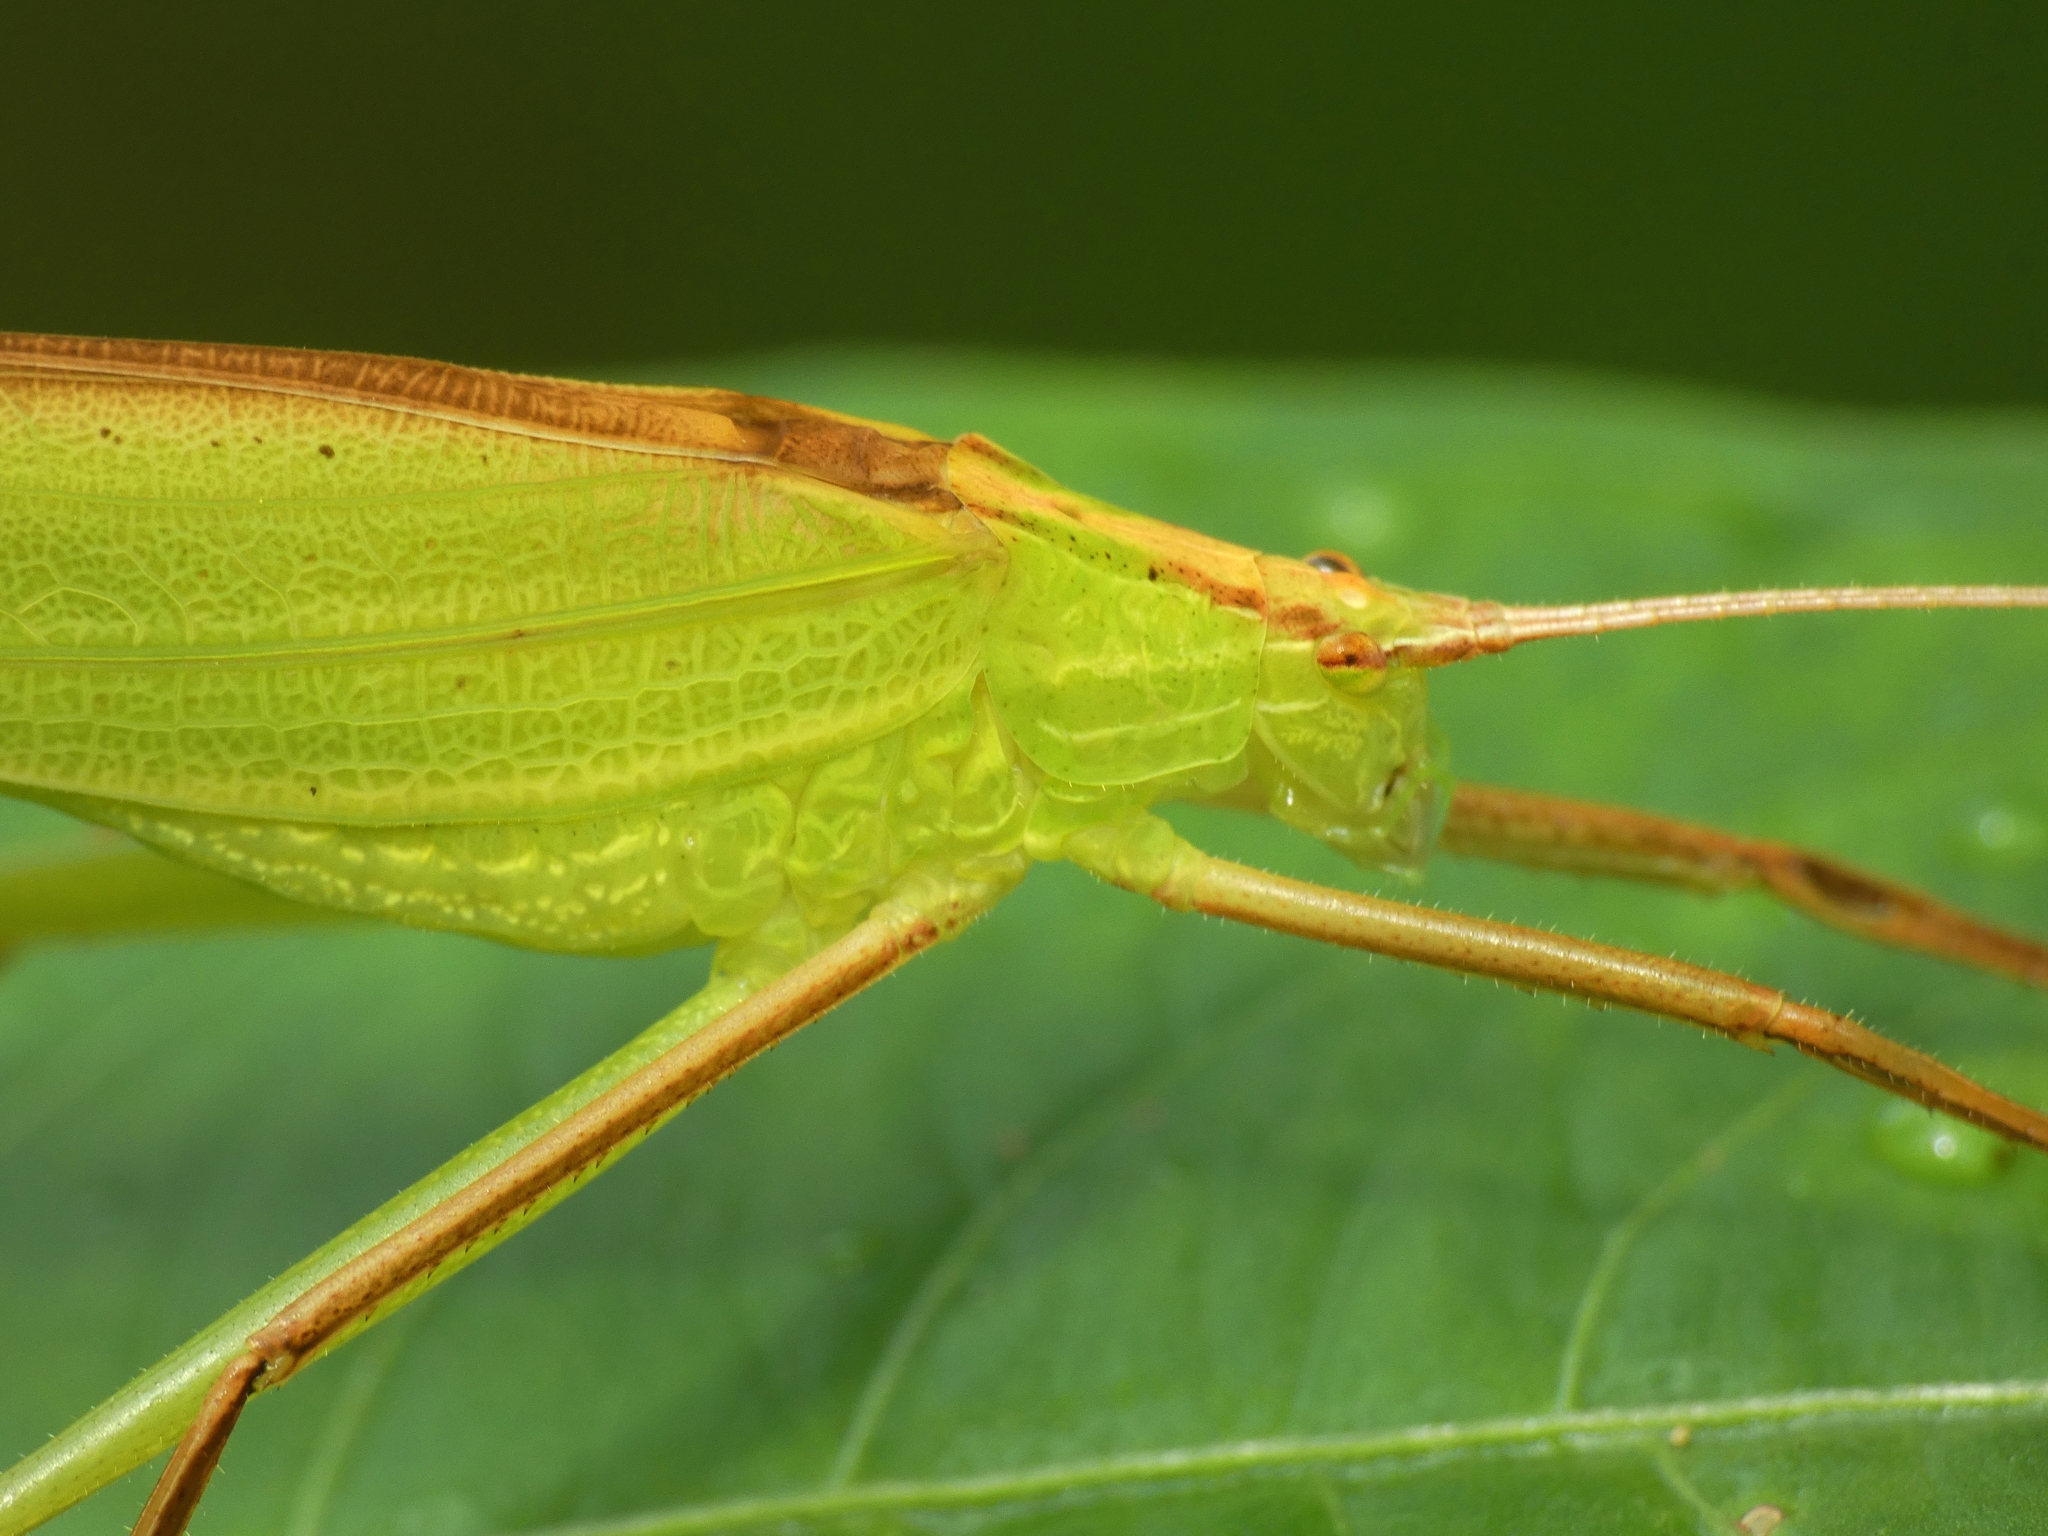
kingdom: Animalia
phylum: Arthropoda
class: Insecta
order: Orthoptera
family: Tettigoniidae
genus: Ducetia
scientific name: Ducetia antipoda
